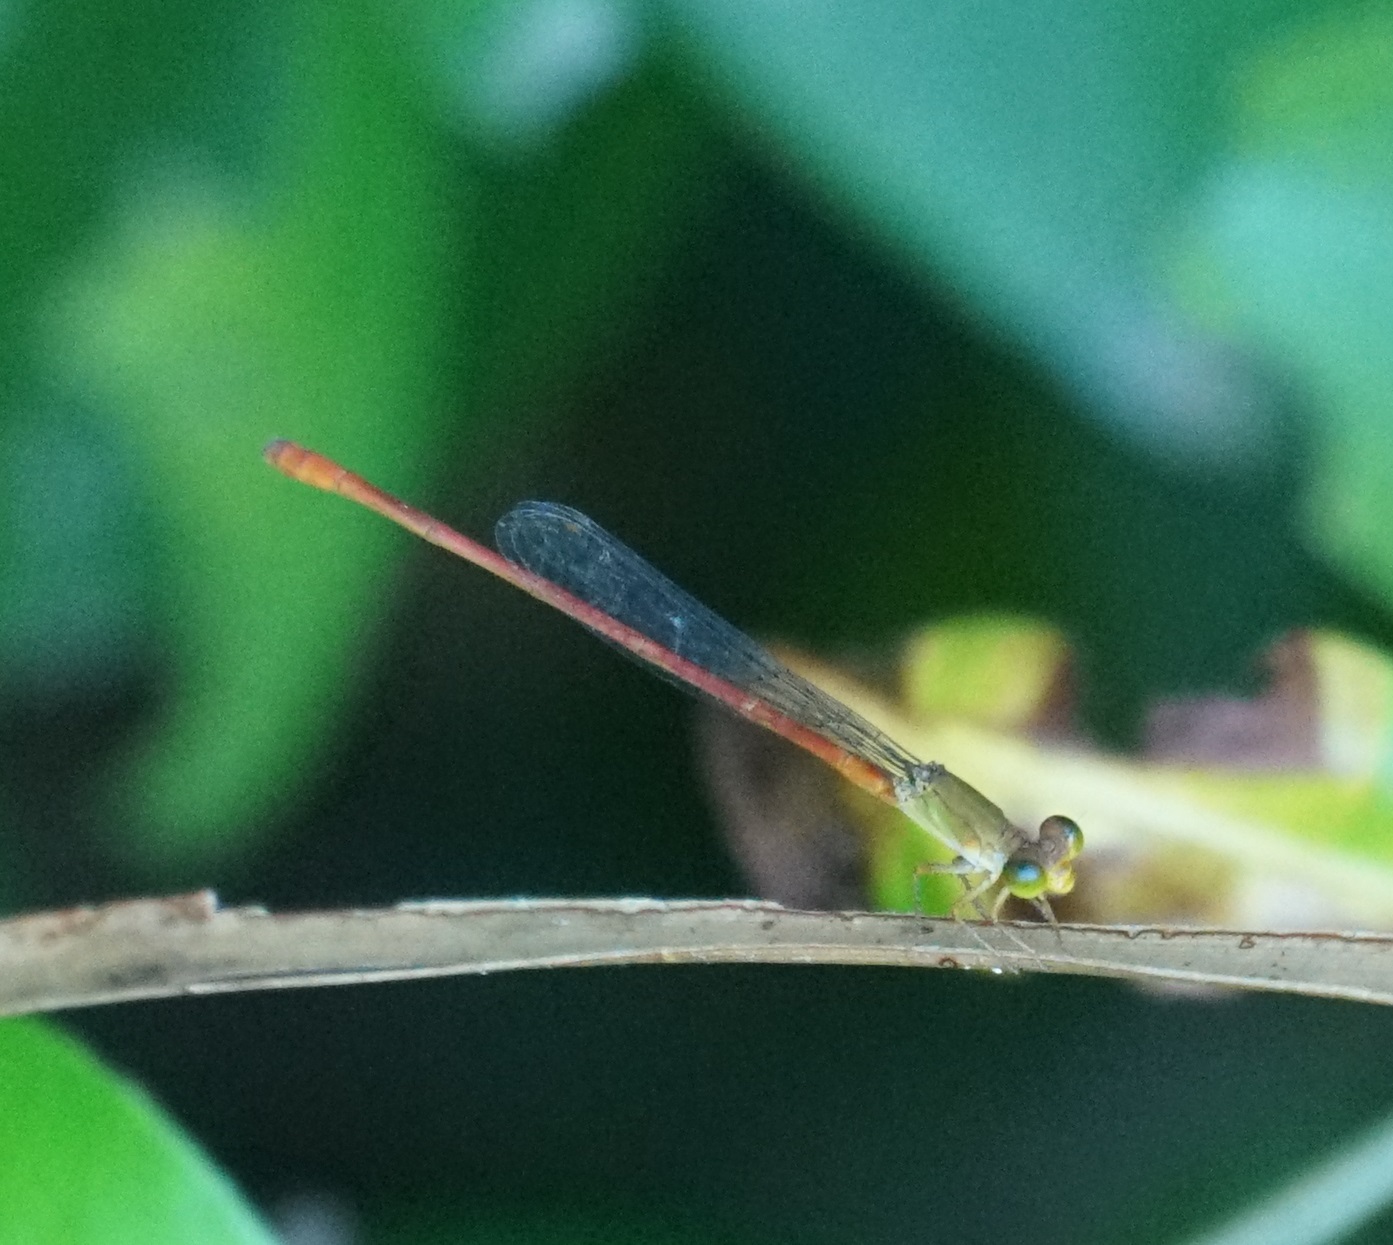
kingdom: Animalia
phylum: Arthropoda
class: Insecta
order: Odonata
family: Coenagrionidae
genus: Ceriagrion
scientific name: Ceriagrion aeruginosum
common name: Redtail
